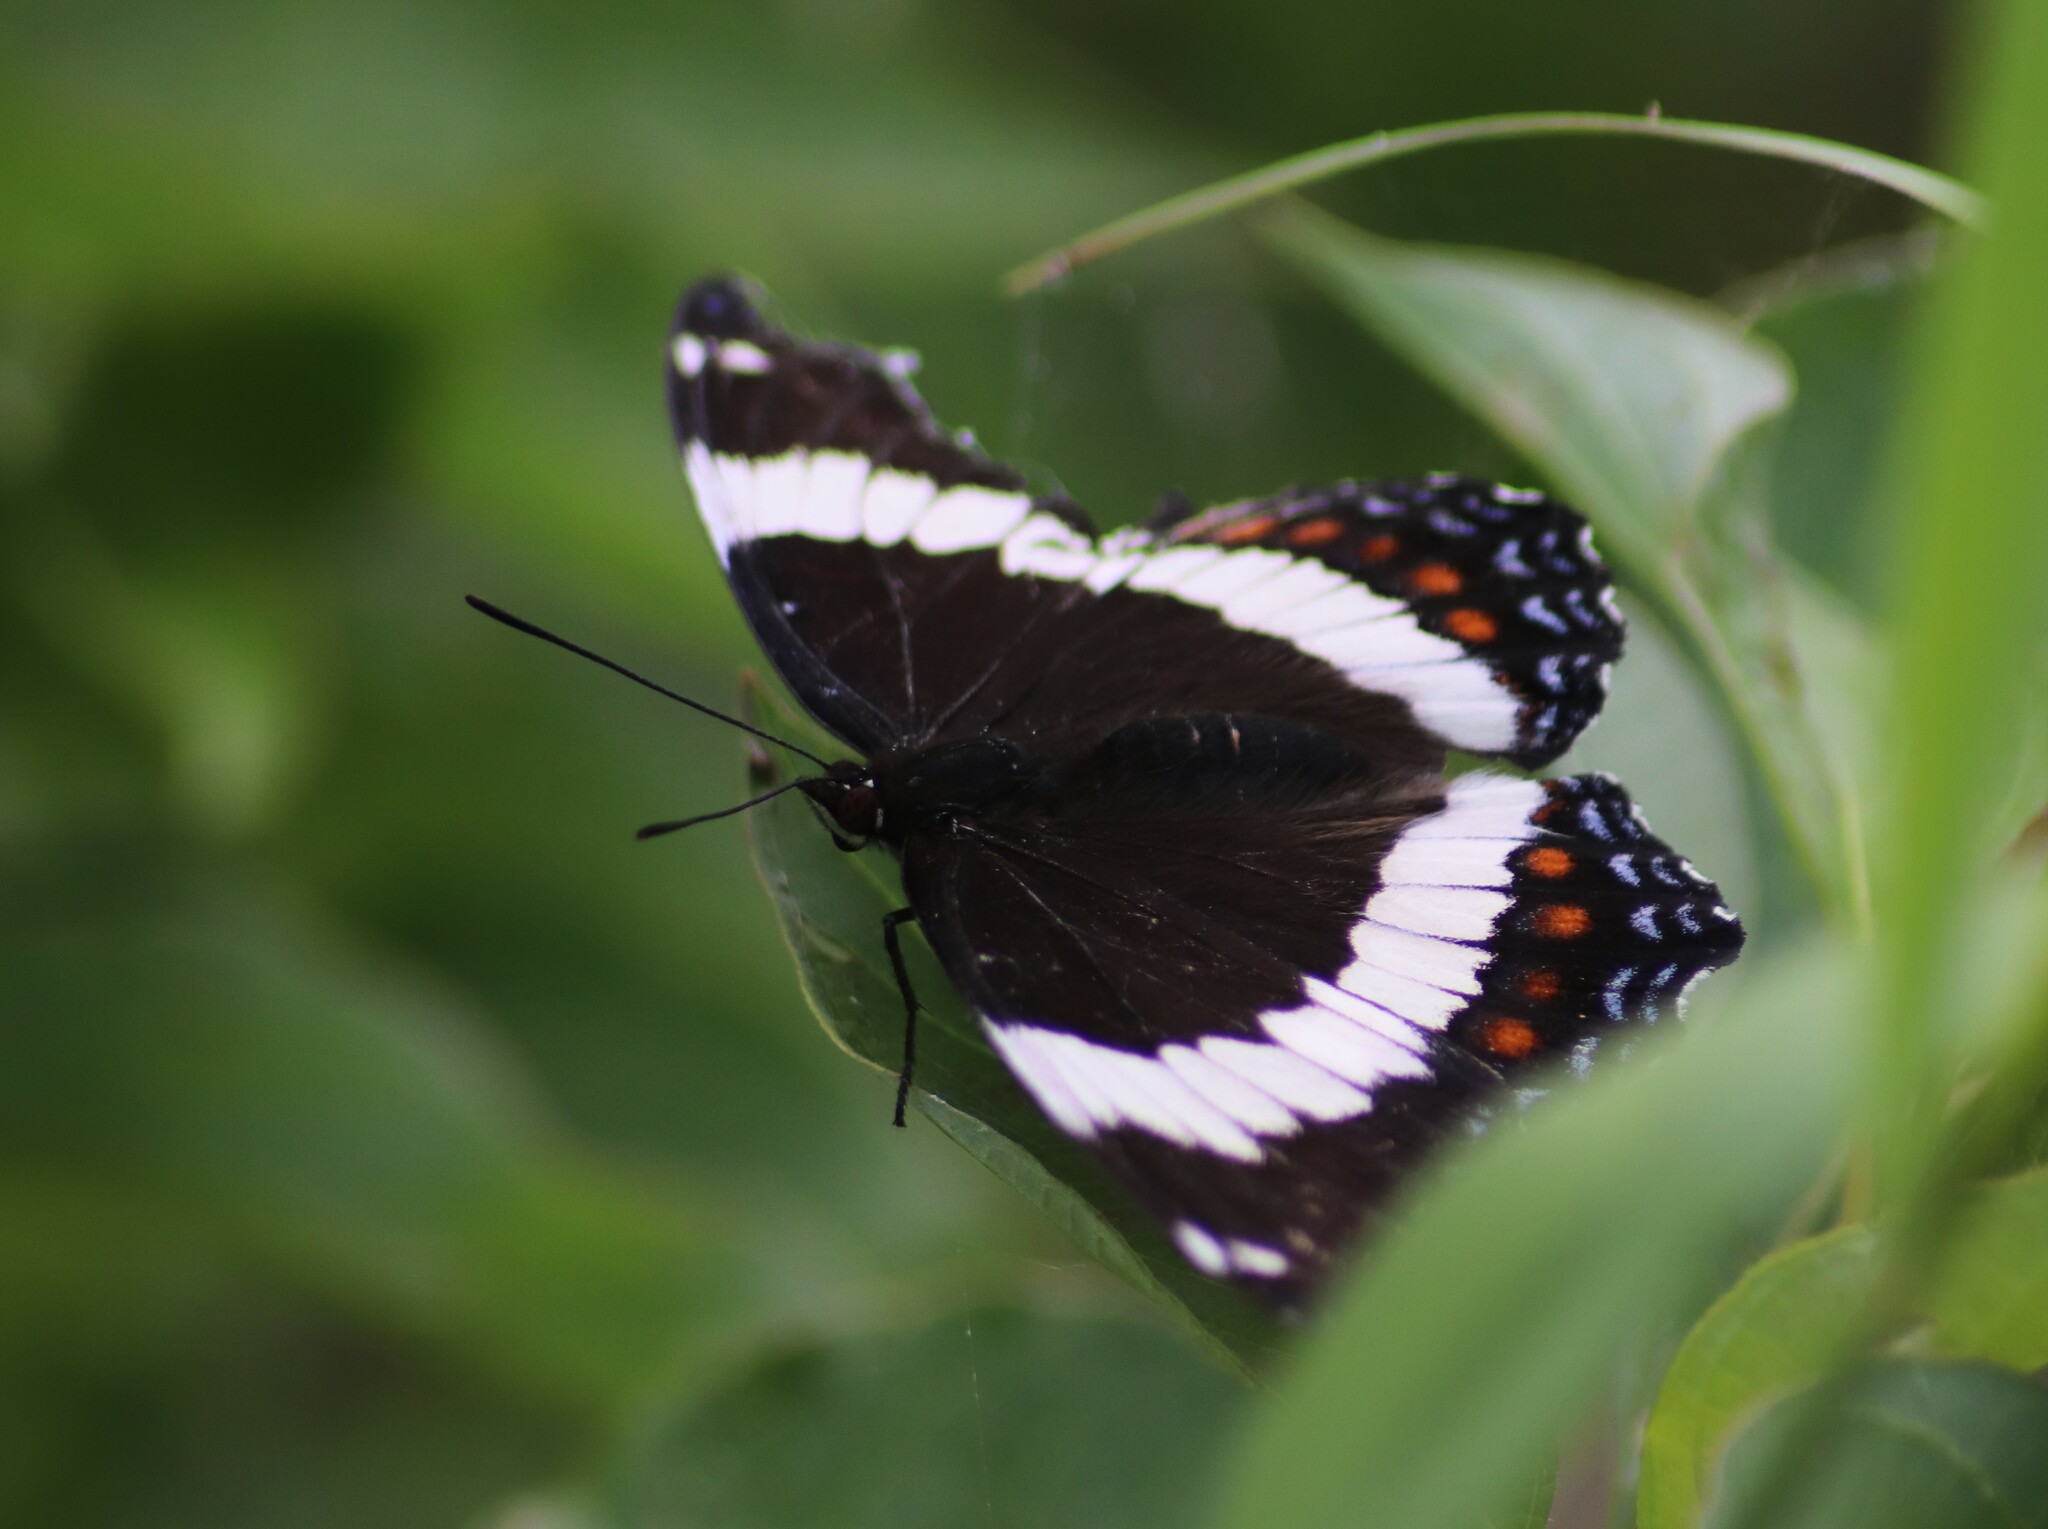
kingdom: Animalia
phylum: Arthropoda
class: Insecta
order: Lepidoptera
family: Nymphalidae
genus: Limenitis
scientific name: Limenitis arthemis
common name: Red-spotted admiral
